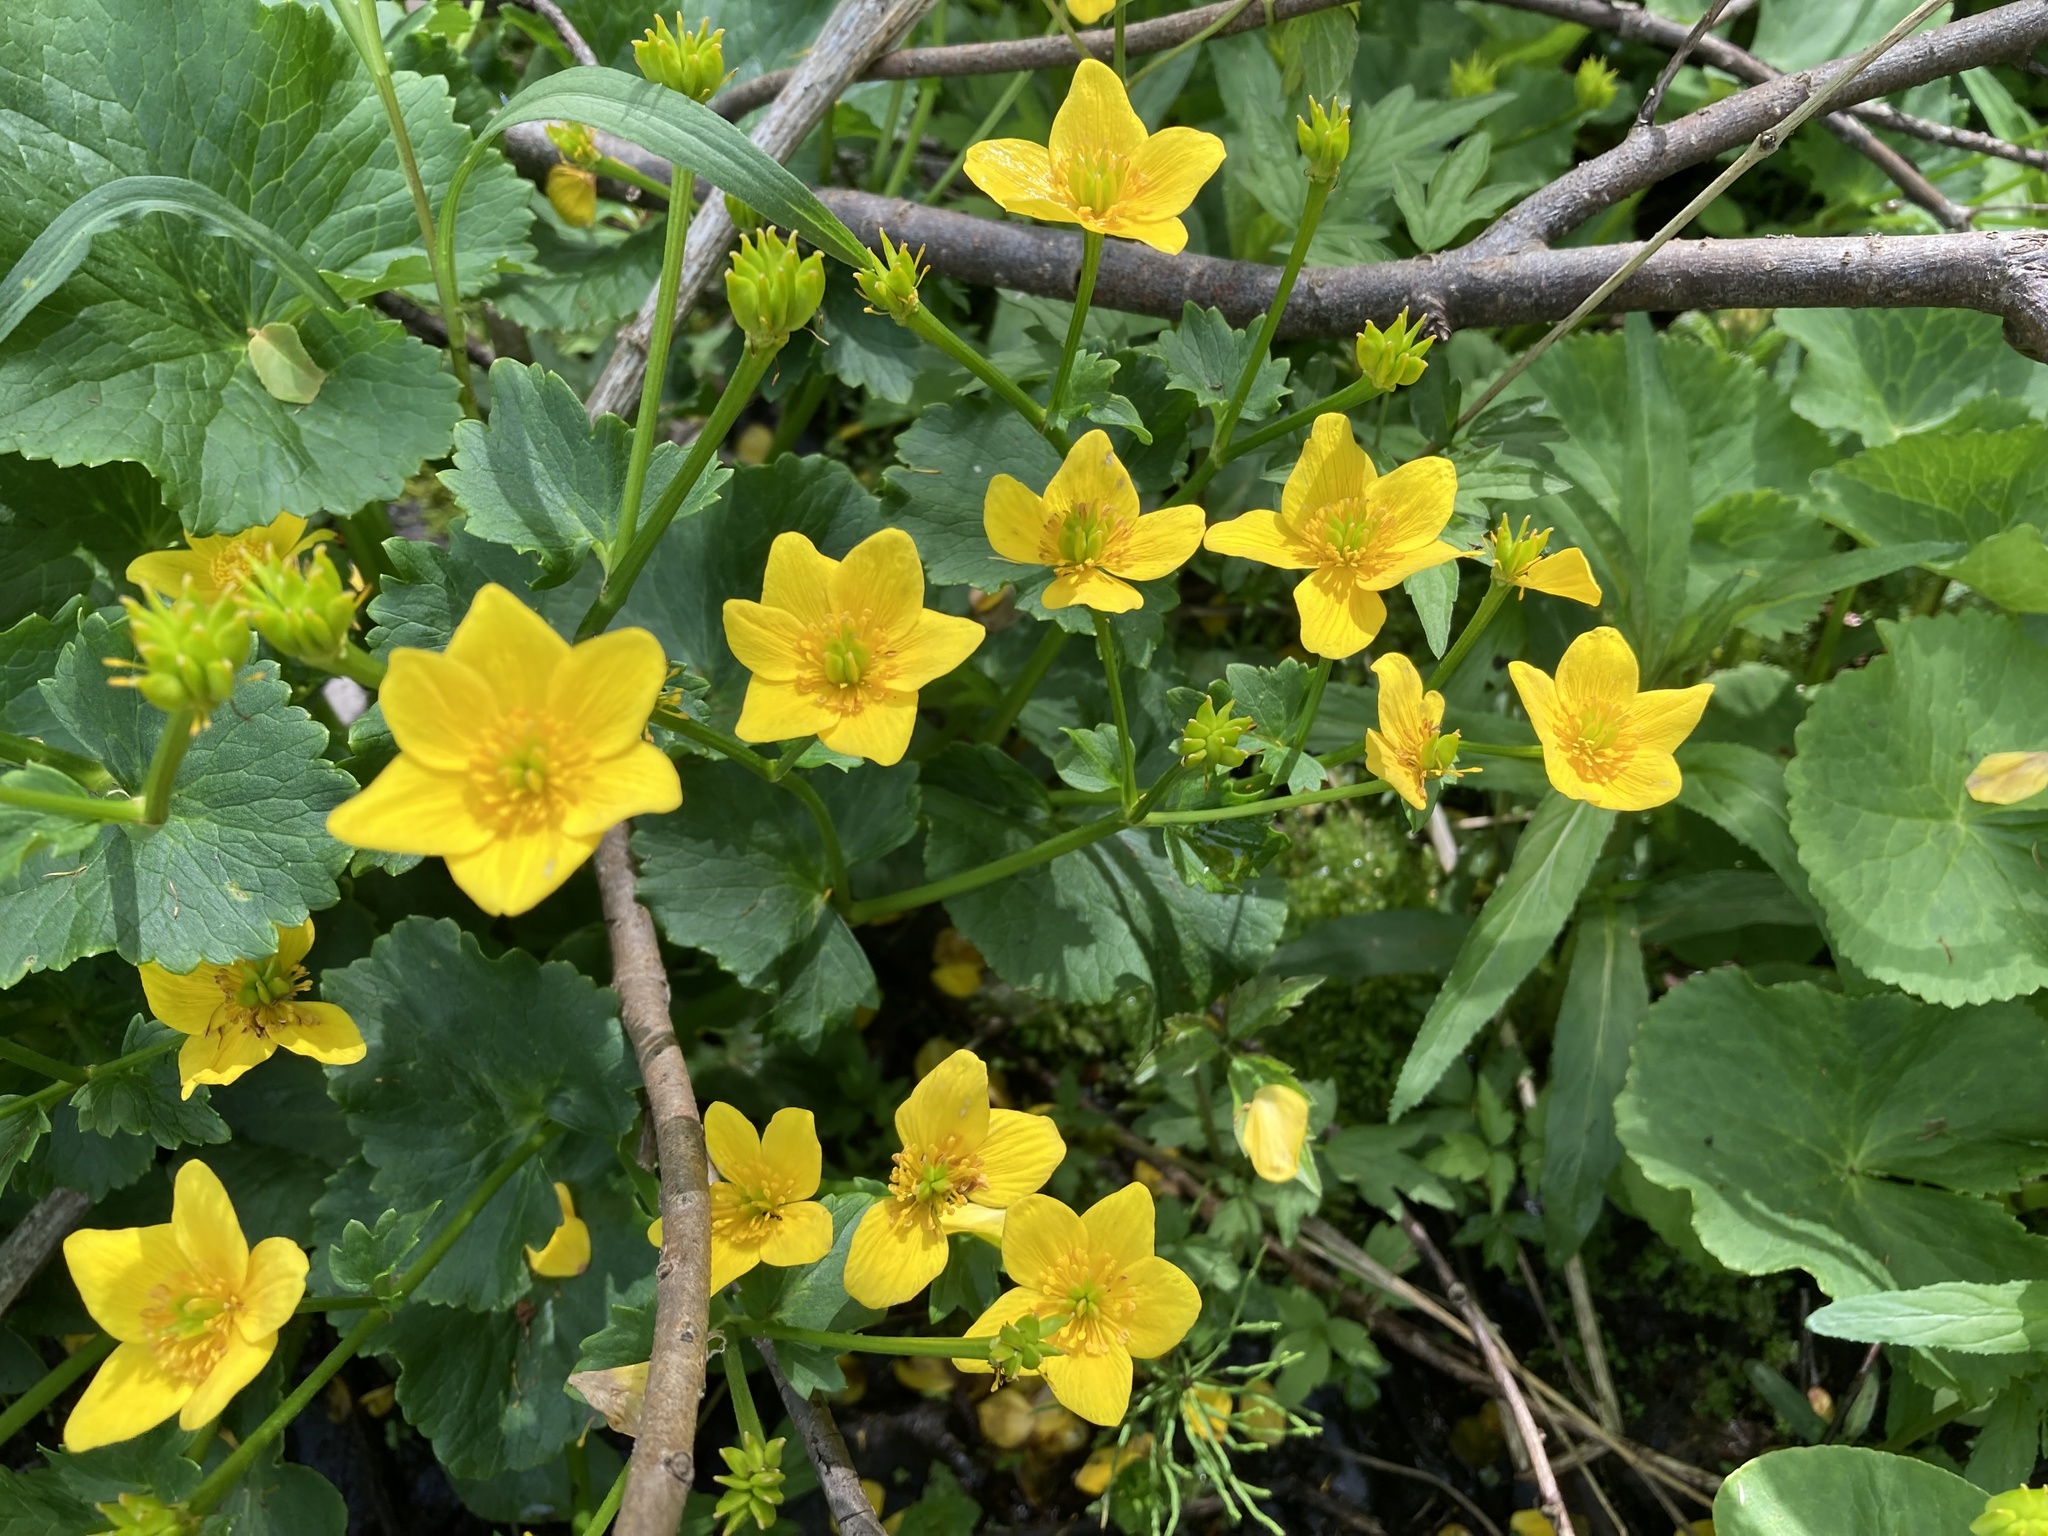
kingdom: Plantae
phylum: Tracheophyta
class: Magnoliopsida
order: Ranunculales
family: Ranunculaceae
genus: Caltha
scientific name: Caltha palustris
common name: Marsh marigold
